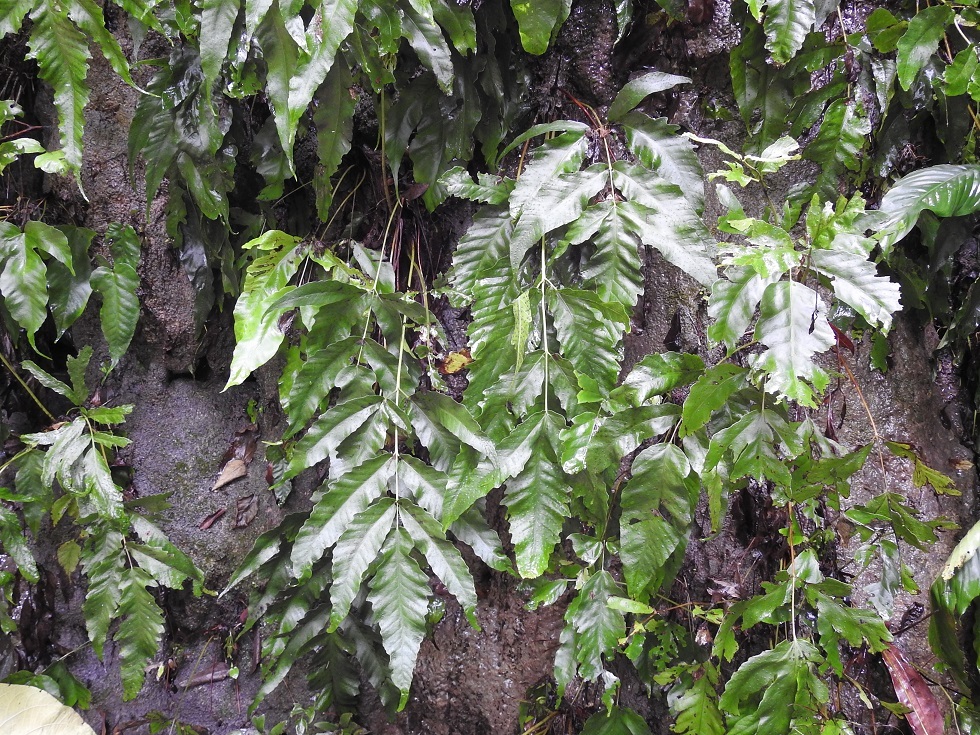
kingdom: Plantae
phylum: Tracheophyta
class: Polypodiopsida
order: Polypodiales
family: Tectariaceae
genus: Tectaria
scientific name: Tectaria heracleifolia
